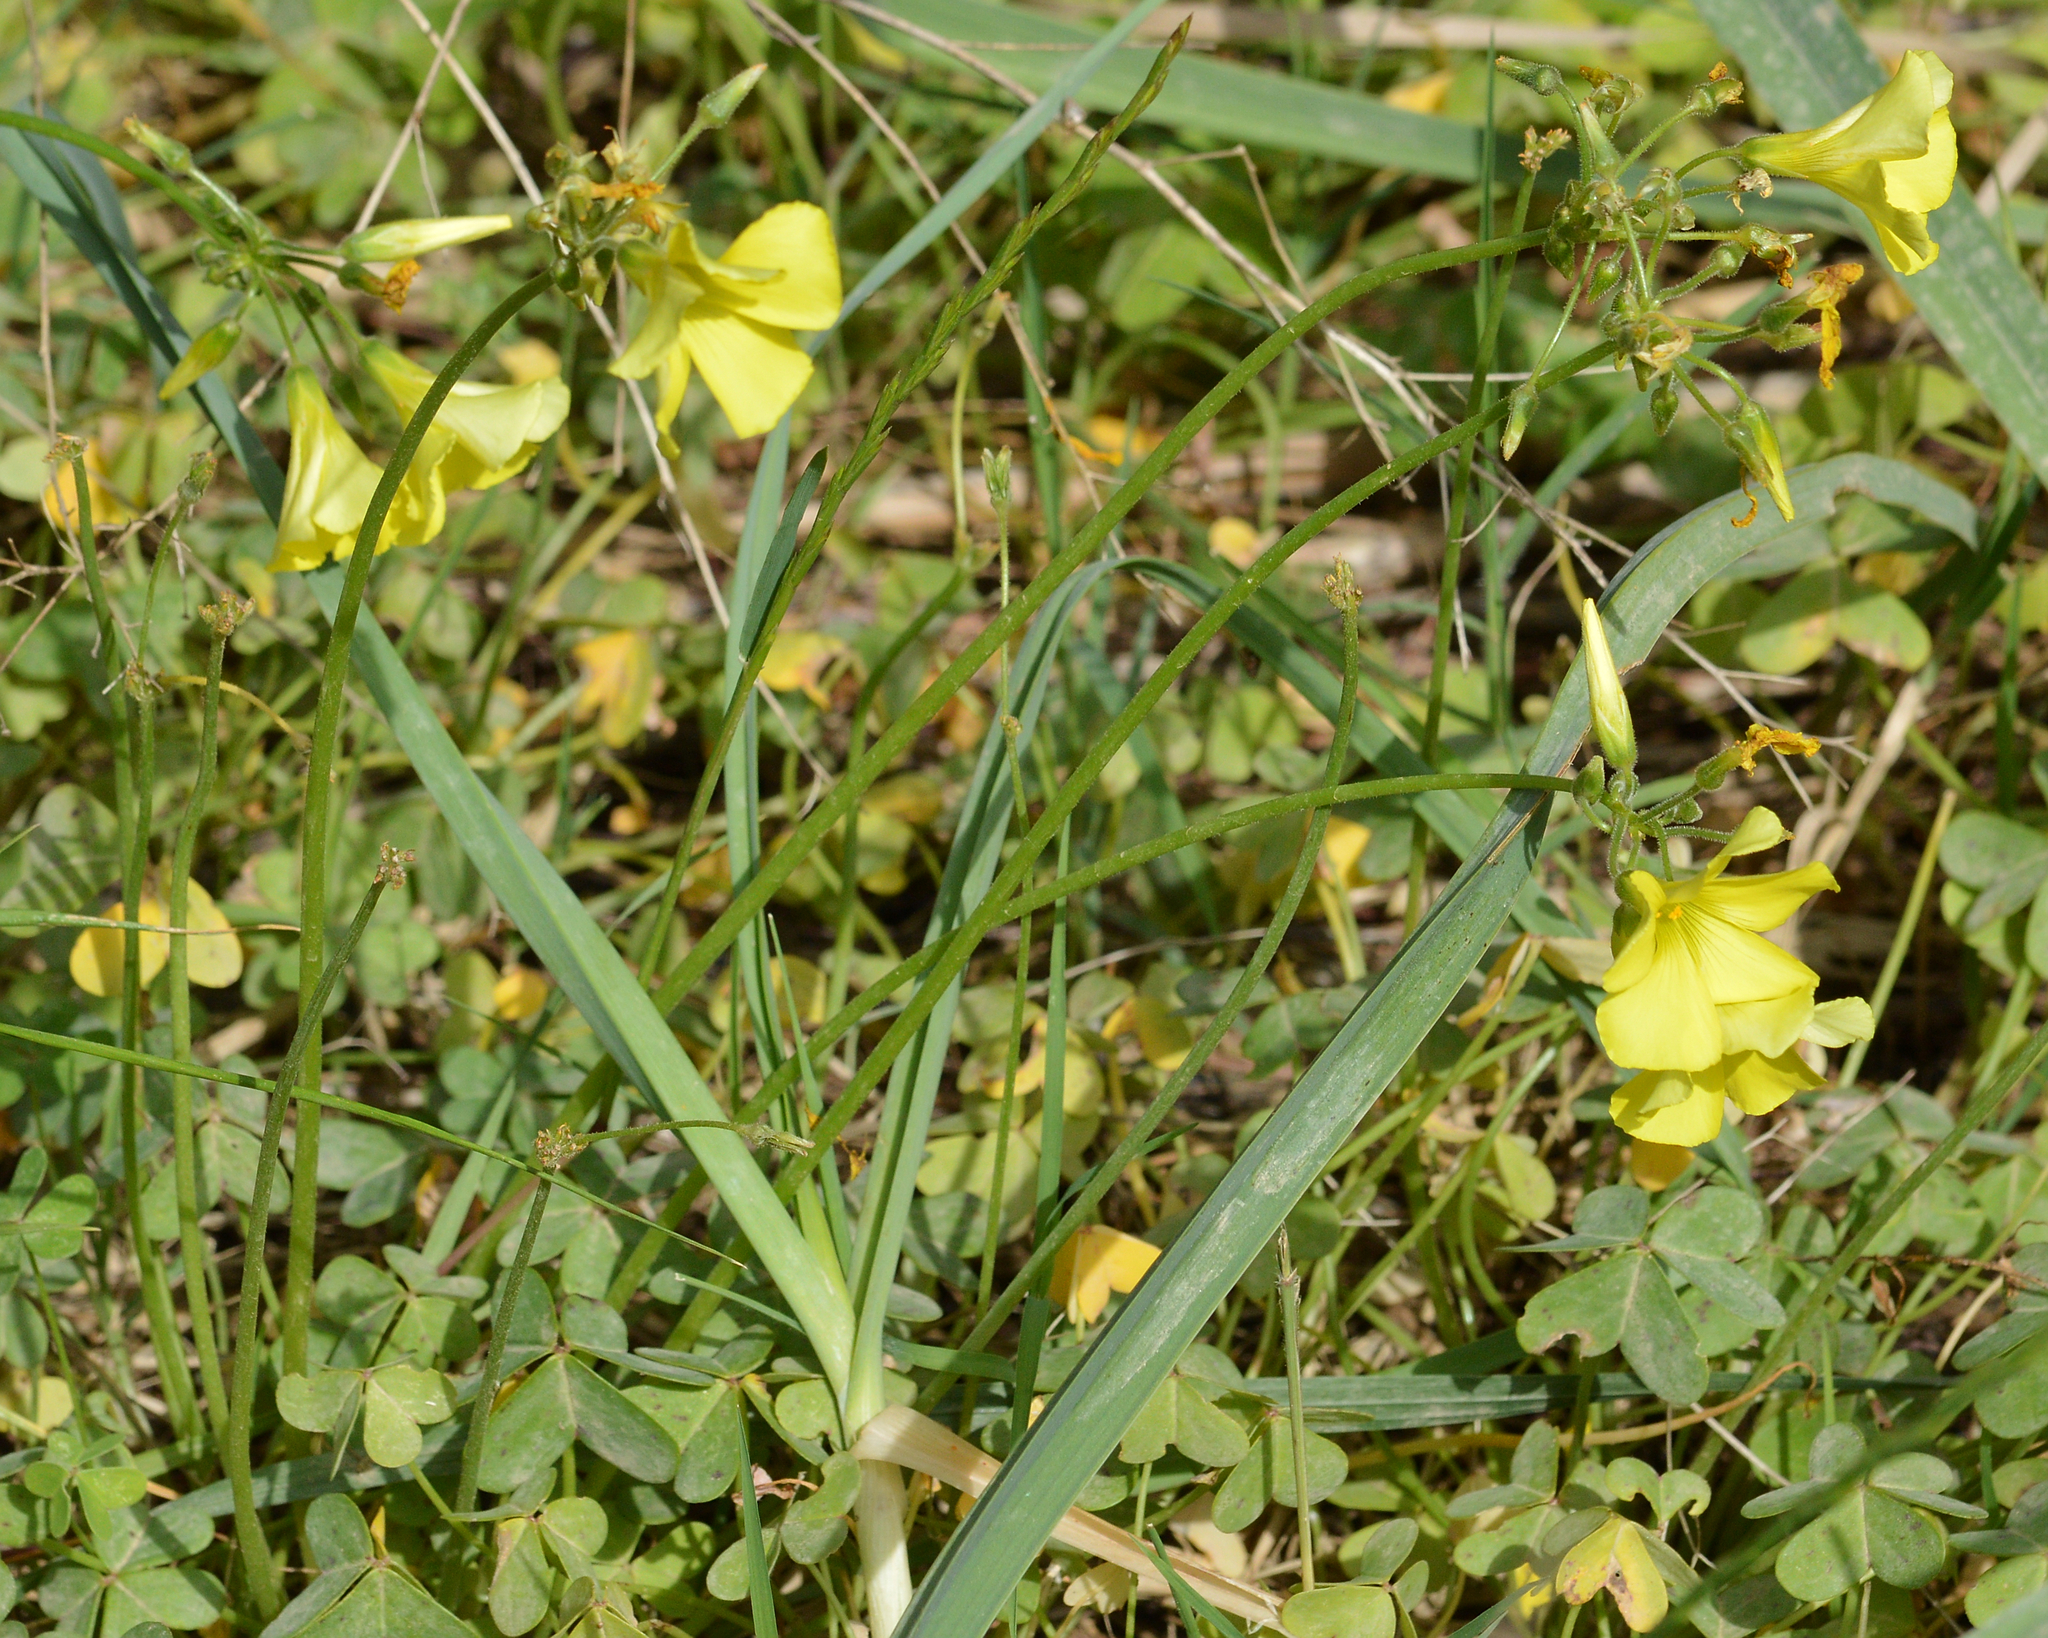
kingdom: Plantae
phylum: Tracheophyta
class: Magnoliopsida
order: Oxalidales
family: Oxalidaceae
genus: Oxalis
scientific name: Oxalis pes-caprae
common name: Bermuda-buttercup
